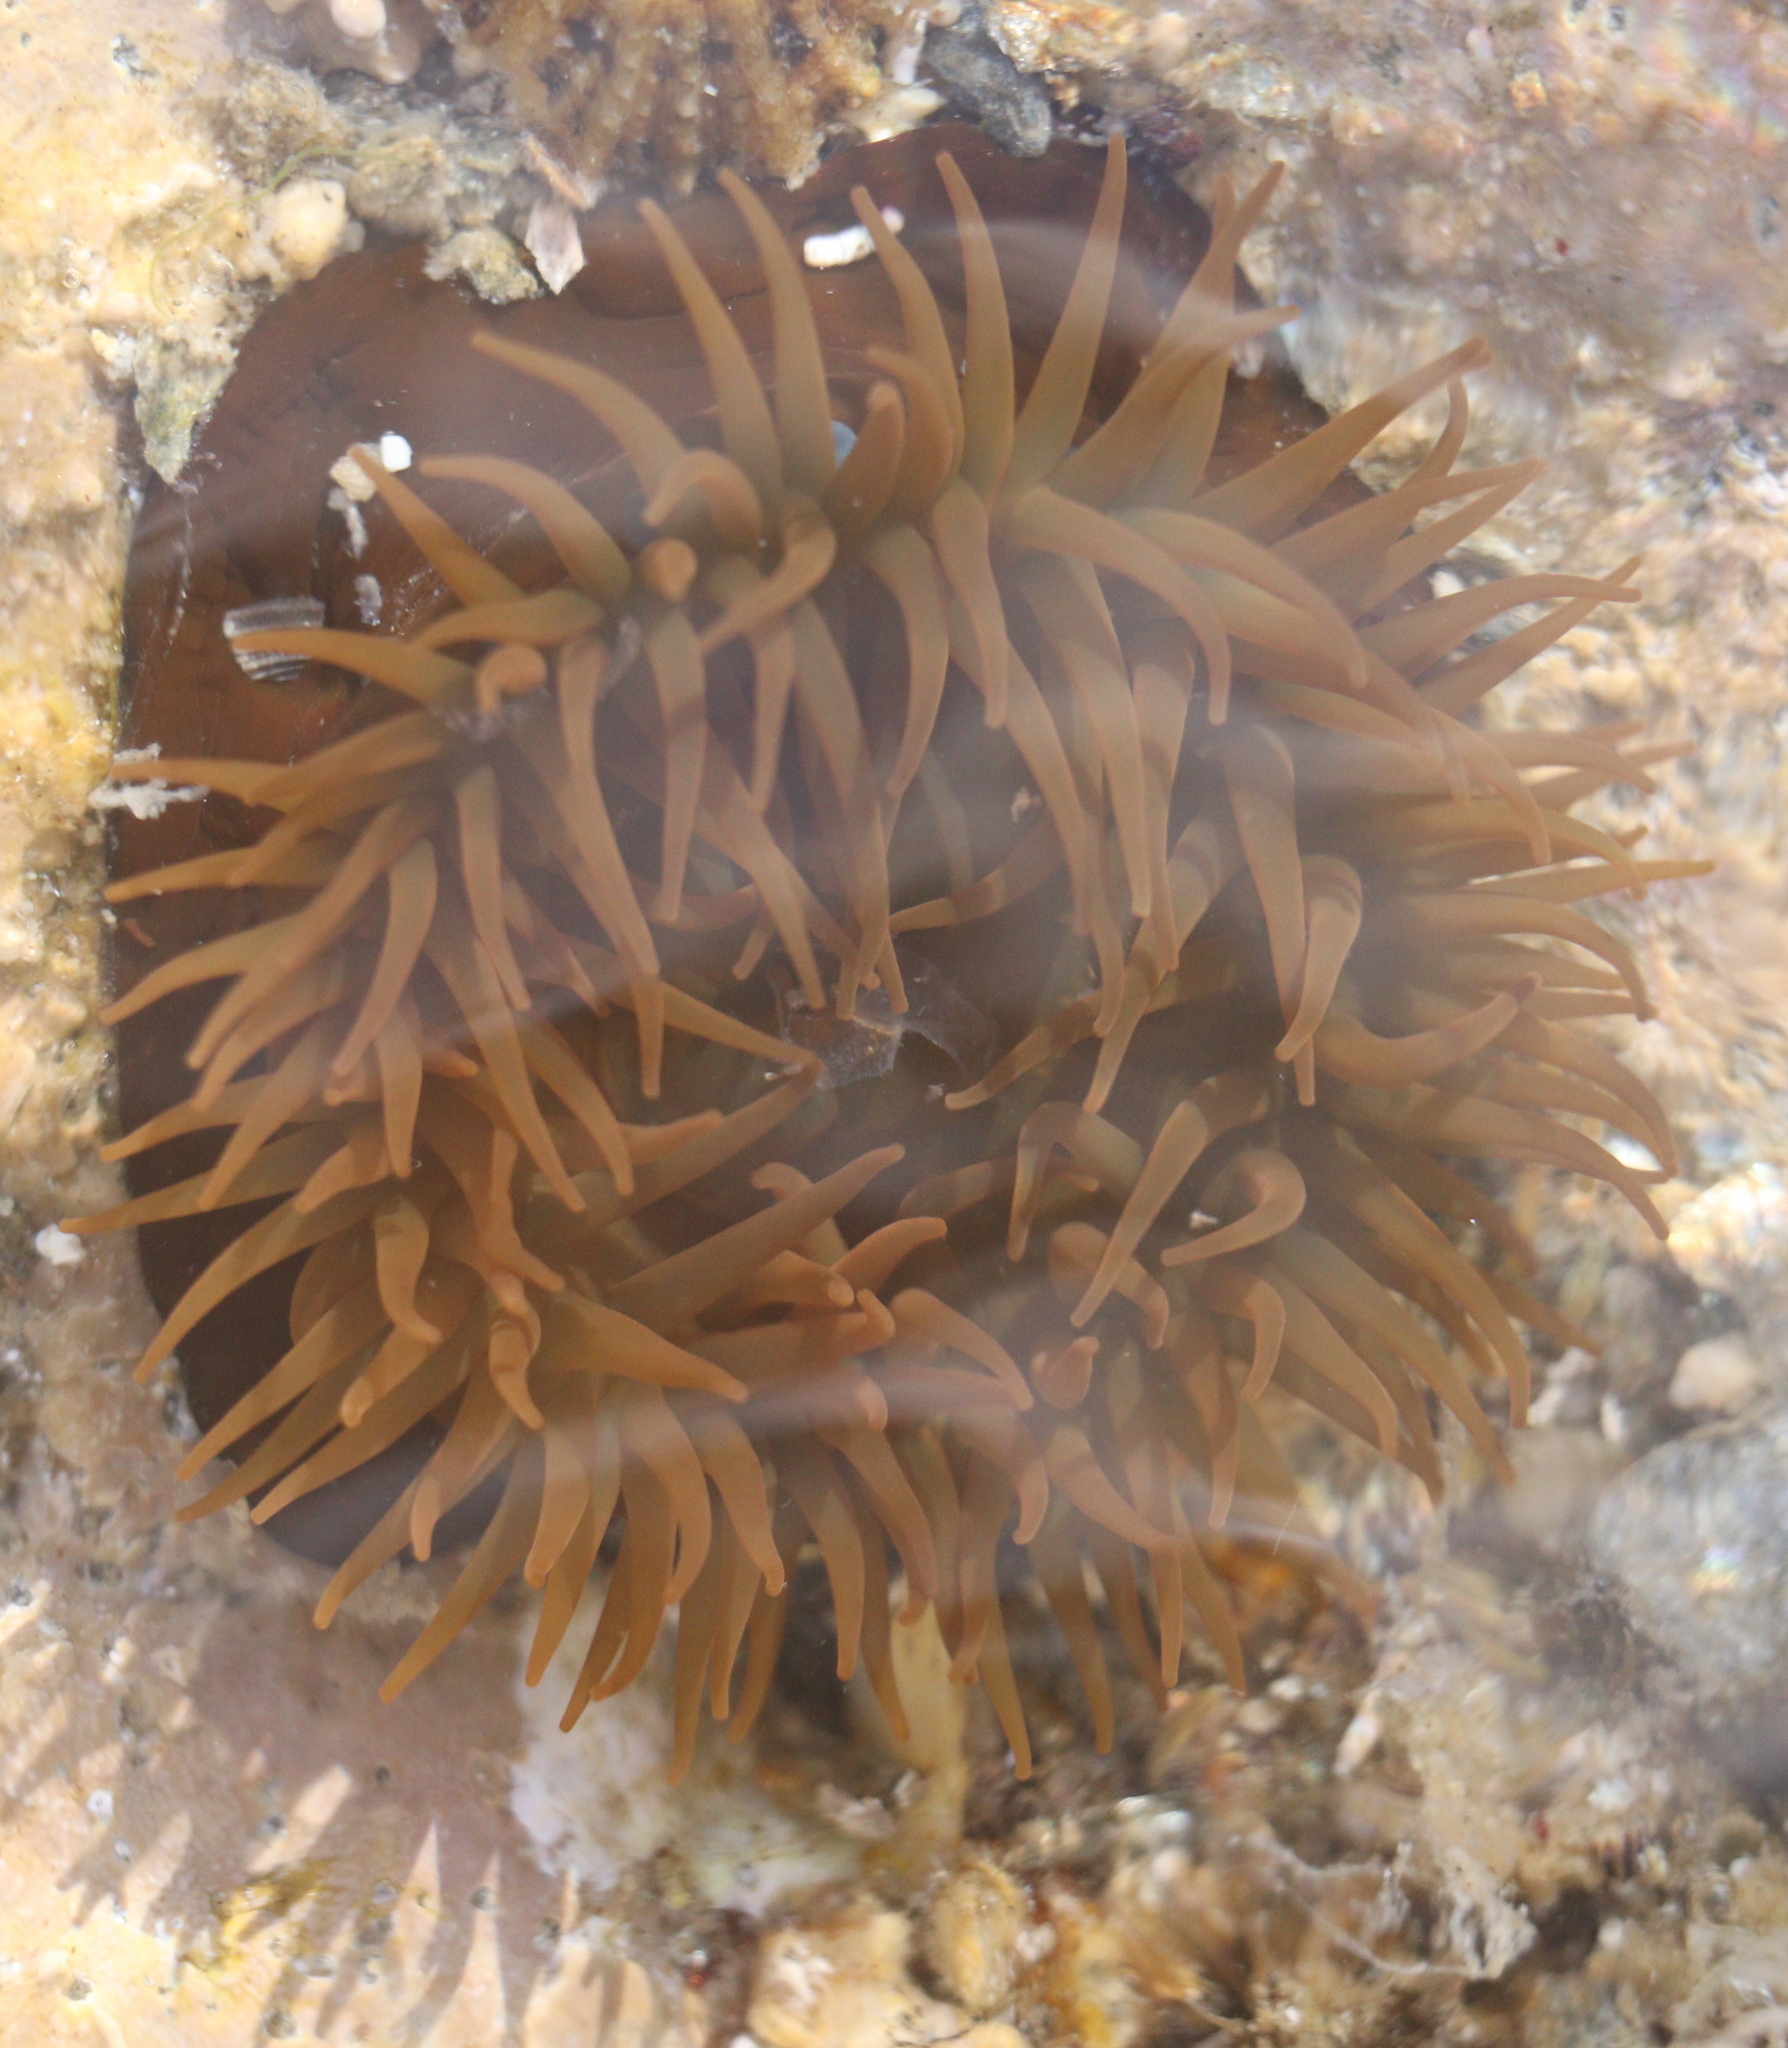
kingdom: Animalia
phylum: Cnidaria
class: Anthozoa
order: Actiniaria
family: Actiniidae
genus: Actinia
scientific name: Actinia equina
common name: Beadlet anemone
